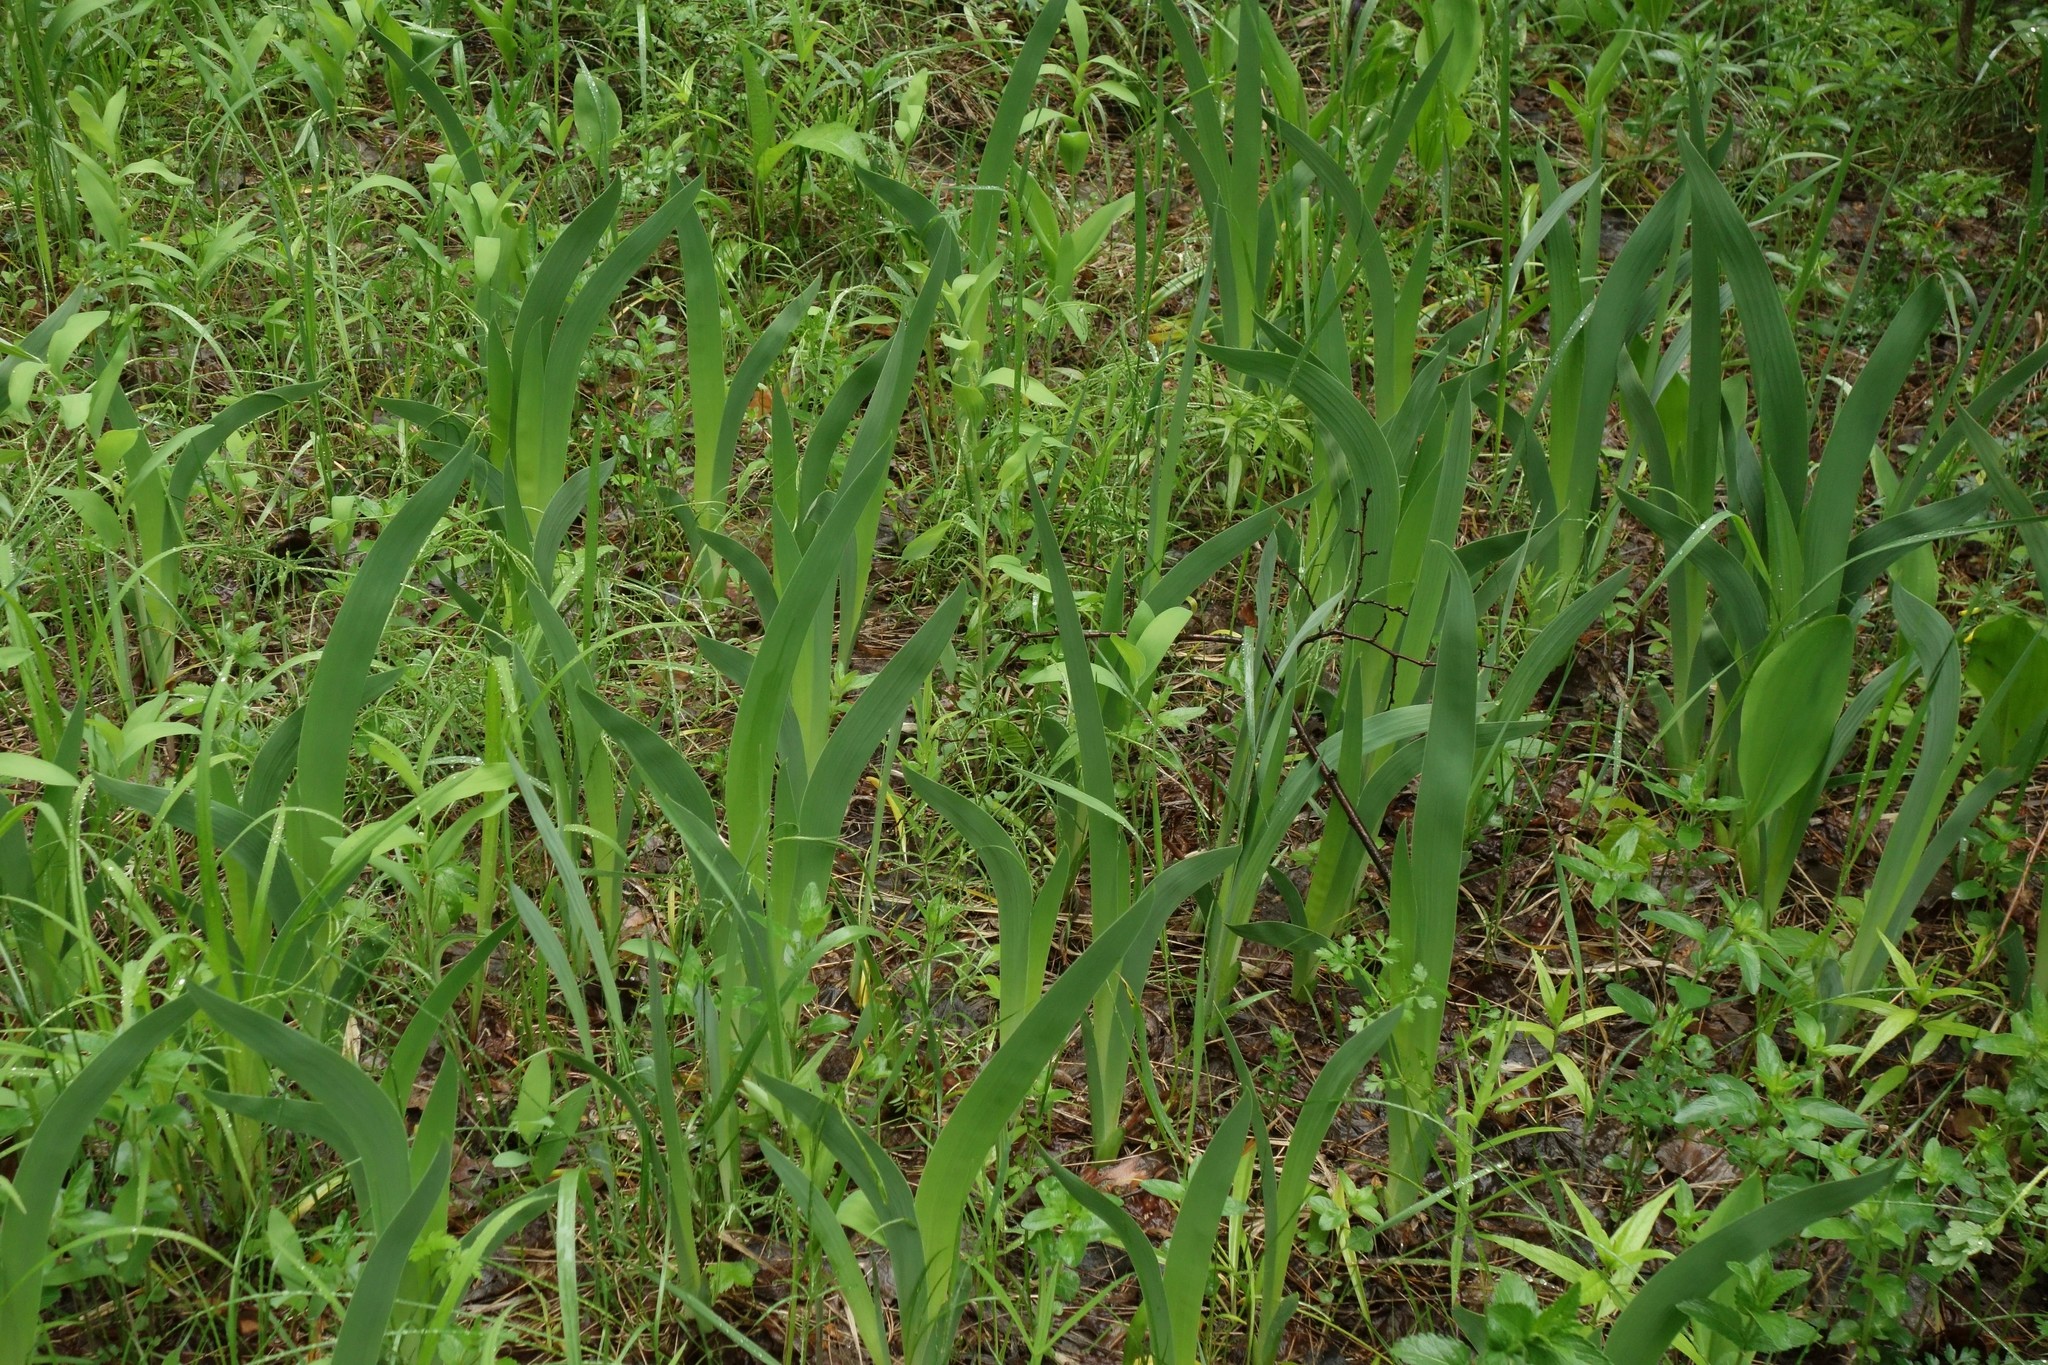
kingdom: Plantae
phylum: Tracheophyta
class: Liliopsida
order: Asparagales
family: Iridaceae
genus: Iris
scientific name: Iris aphylla
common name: Stool iris
